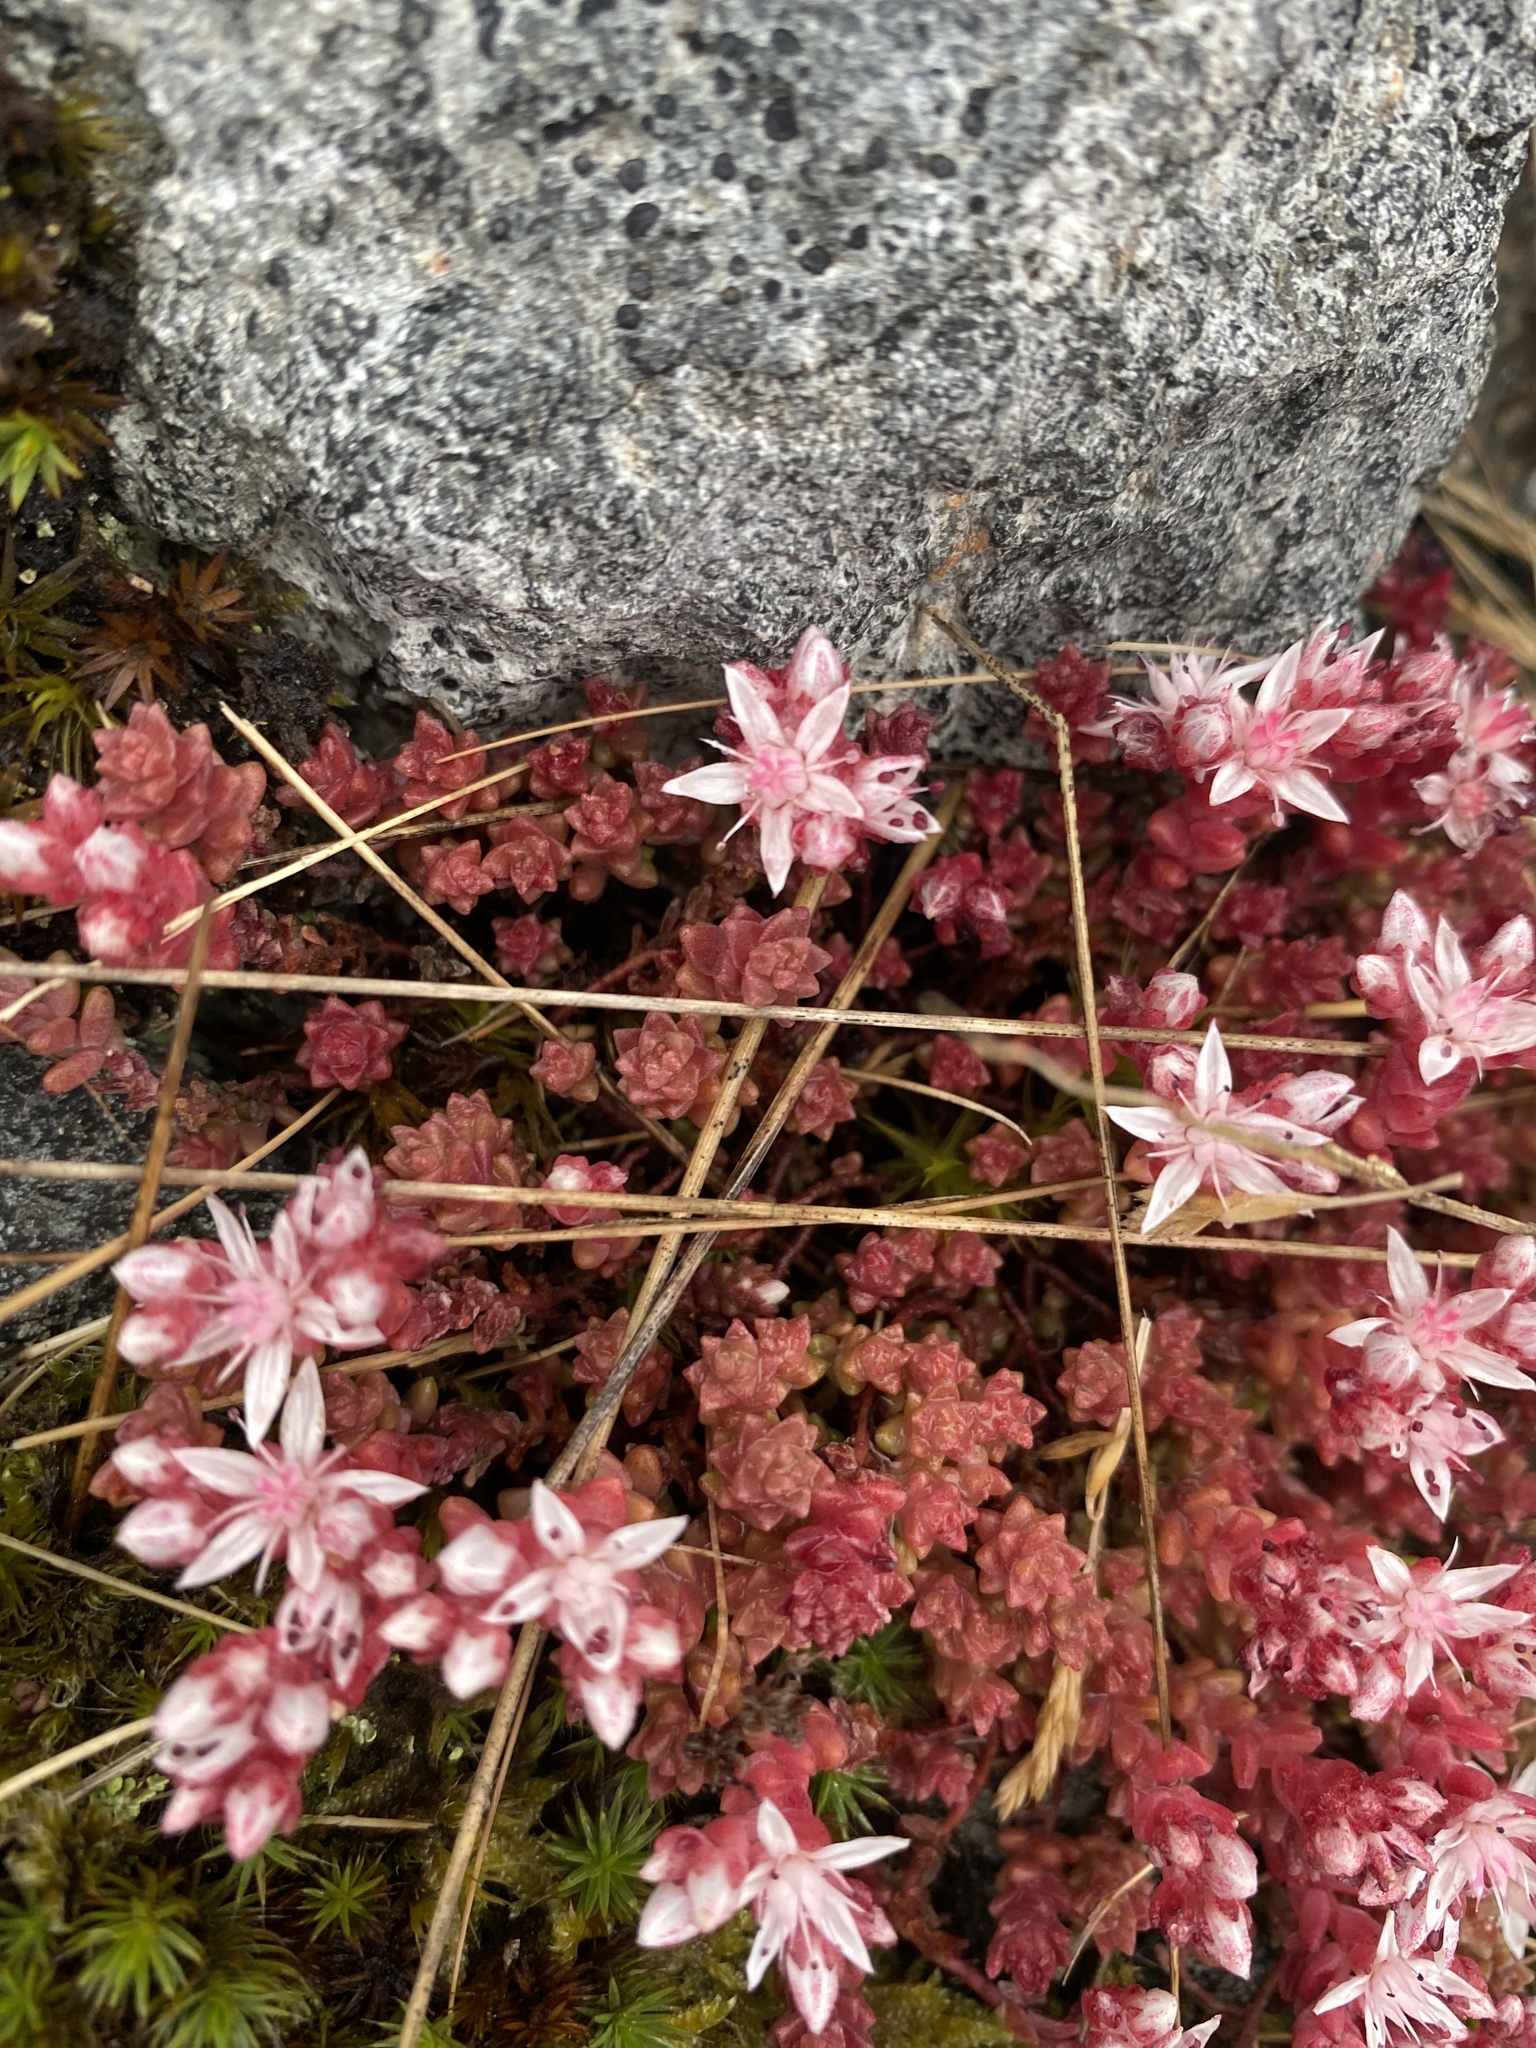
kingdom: Plantae
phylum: Tracheophyta
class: Magnoliopsida
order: Saxifragales
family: Crassulaceae
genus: Sedum
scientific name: Sedum anglicum
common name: English stonecrop
